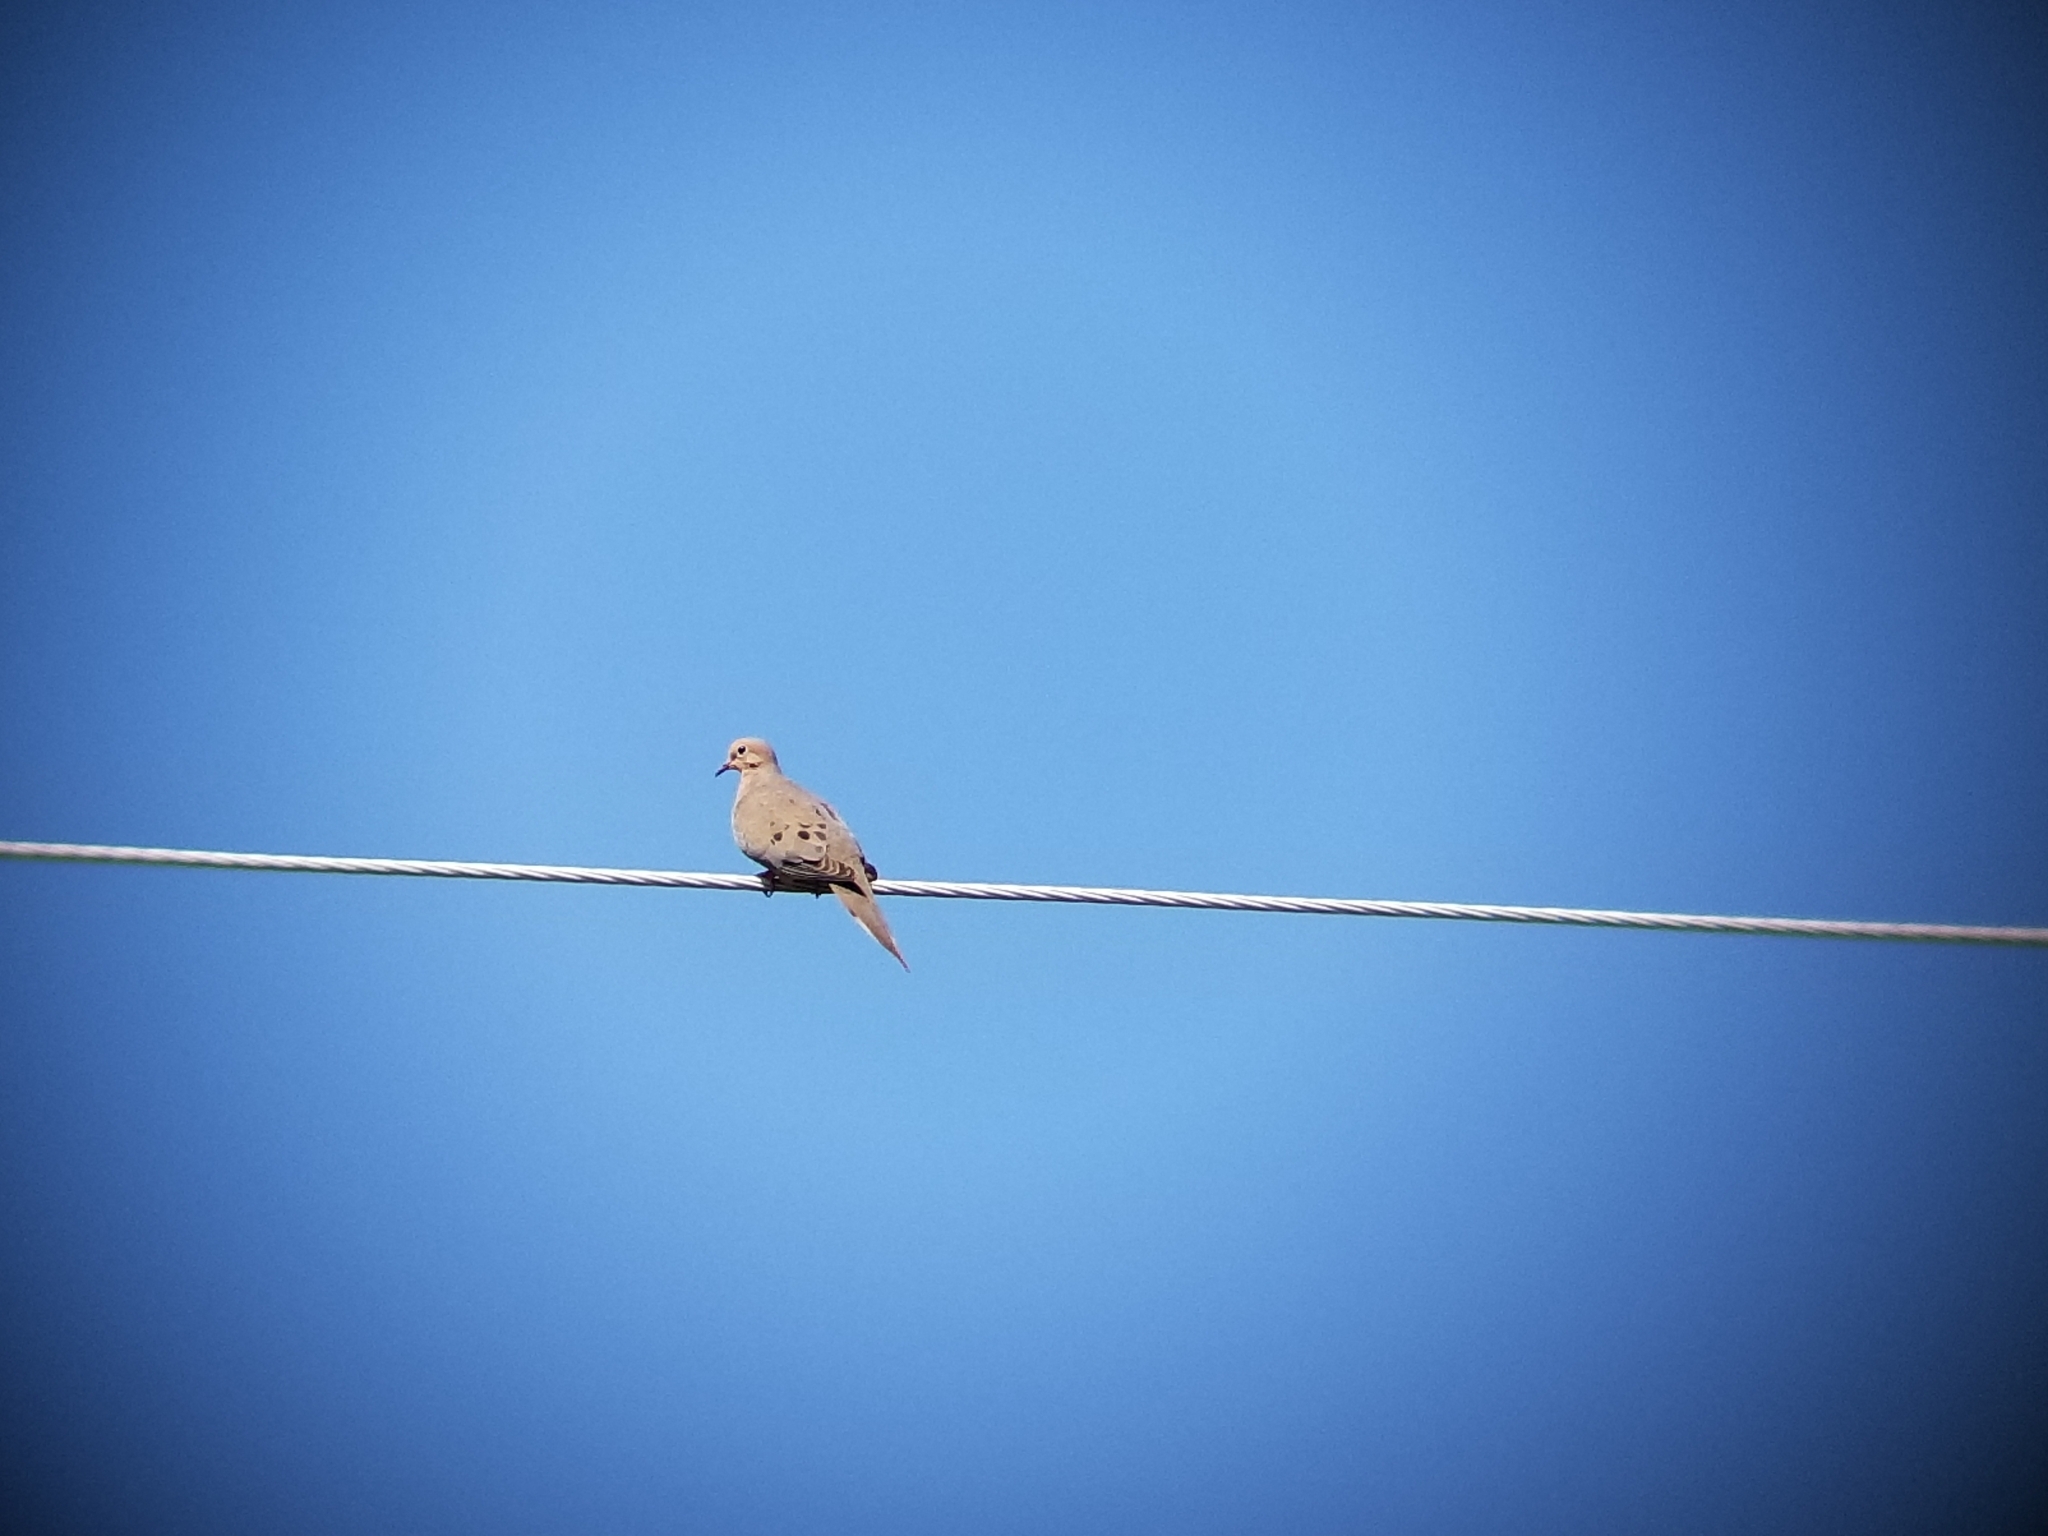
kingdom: Animalia
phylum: Chordata
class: Aves
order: Columbiformes
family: Columbidae
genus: Zenaida
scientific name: Zenaida macroura
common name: Mourning dove
